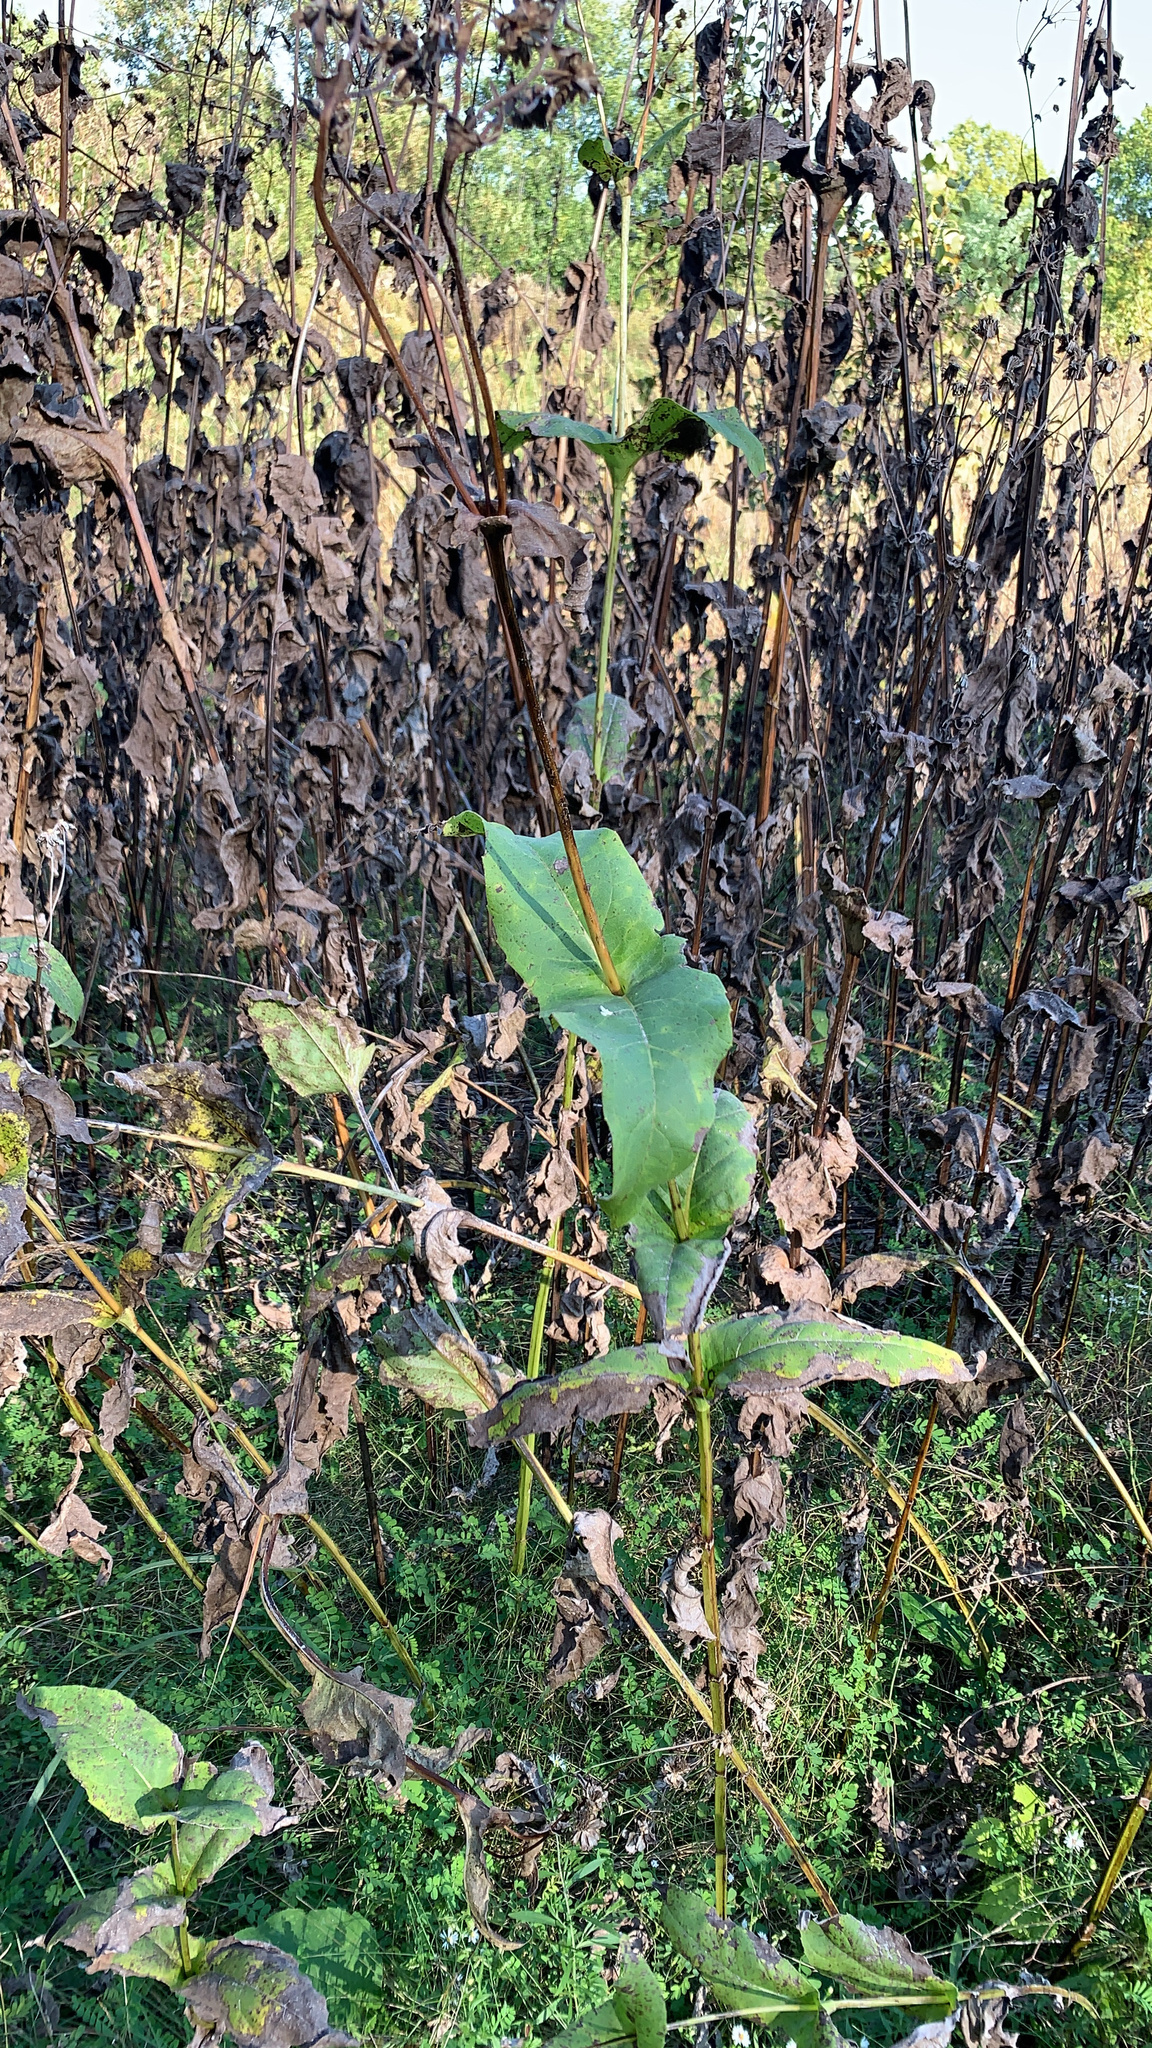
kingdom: Plantae
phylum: Tracheophyta
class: Magnoliopsida
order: Asterales
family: Asteraceae
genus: Silphium
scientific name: Silphium perfoliatum
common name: Cup-plant
